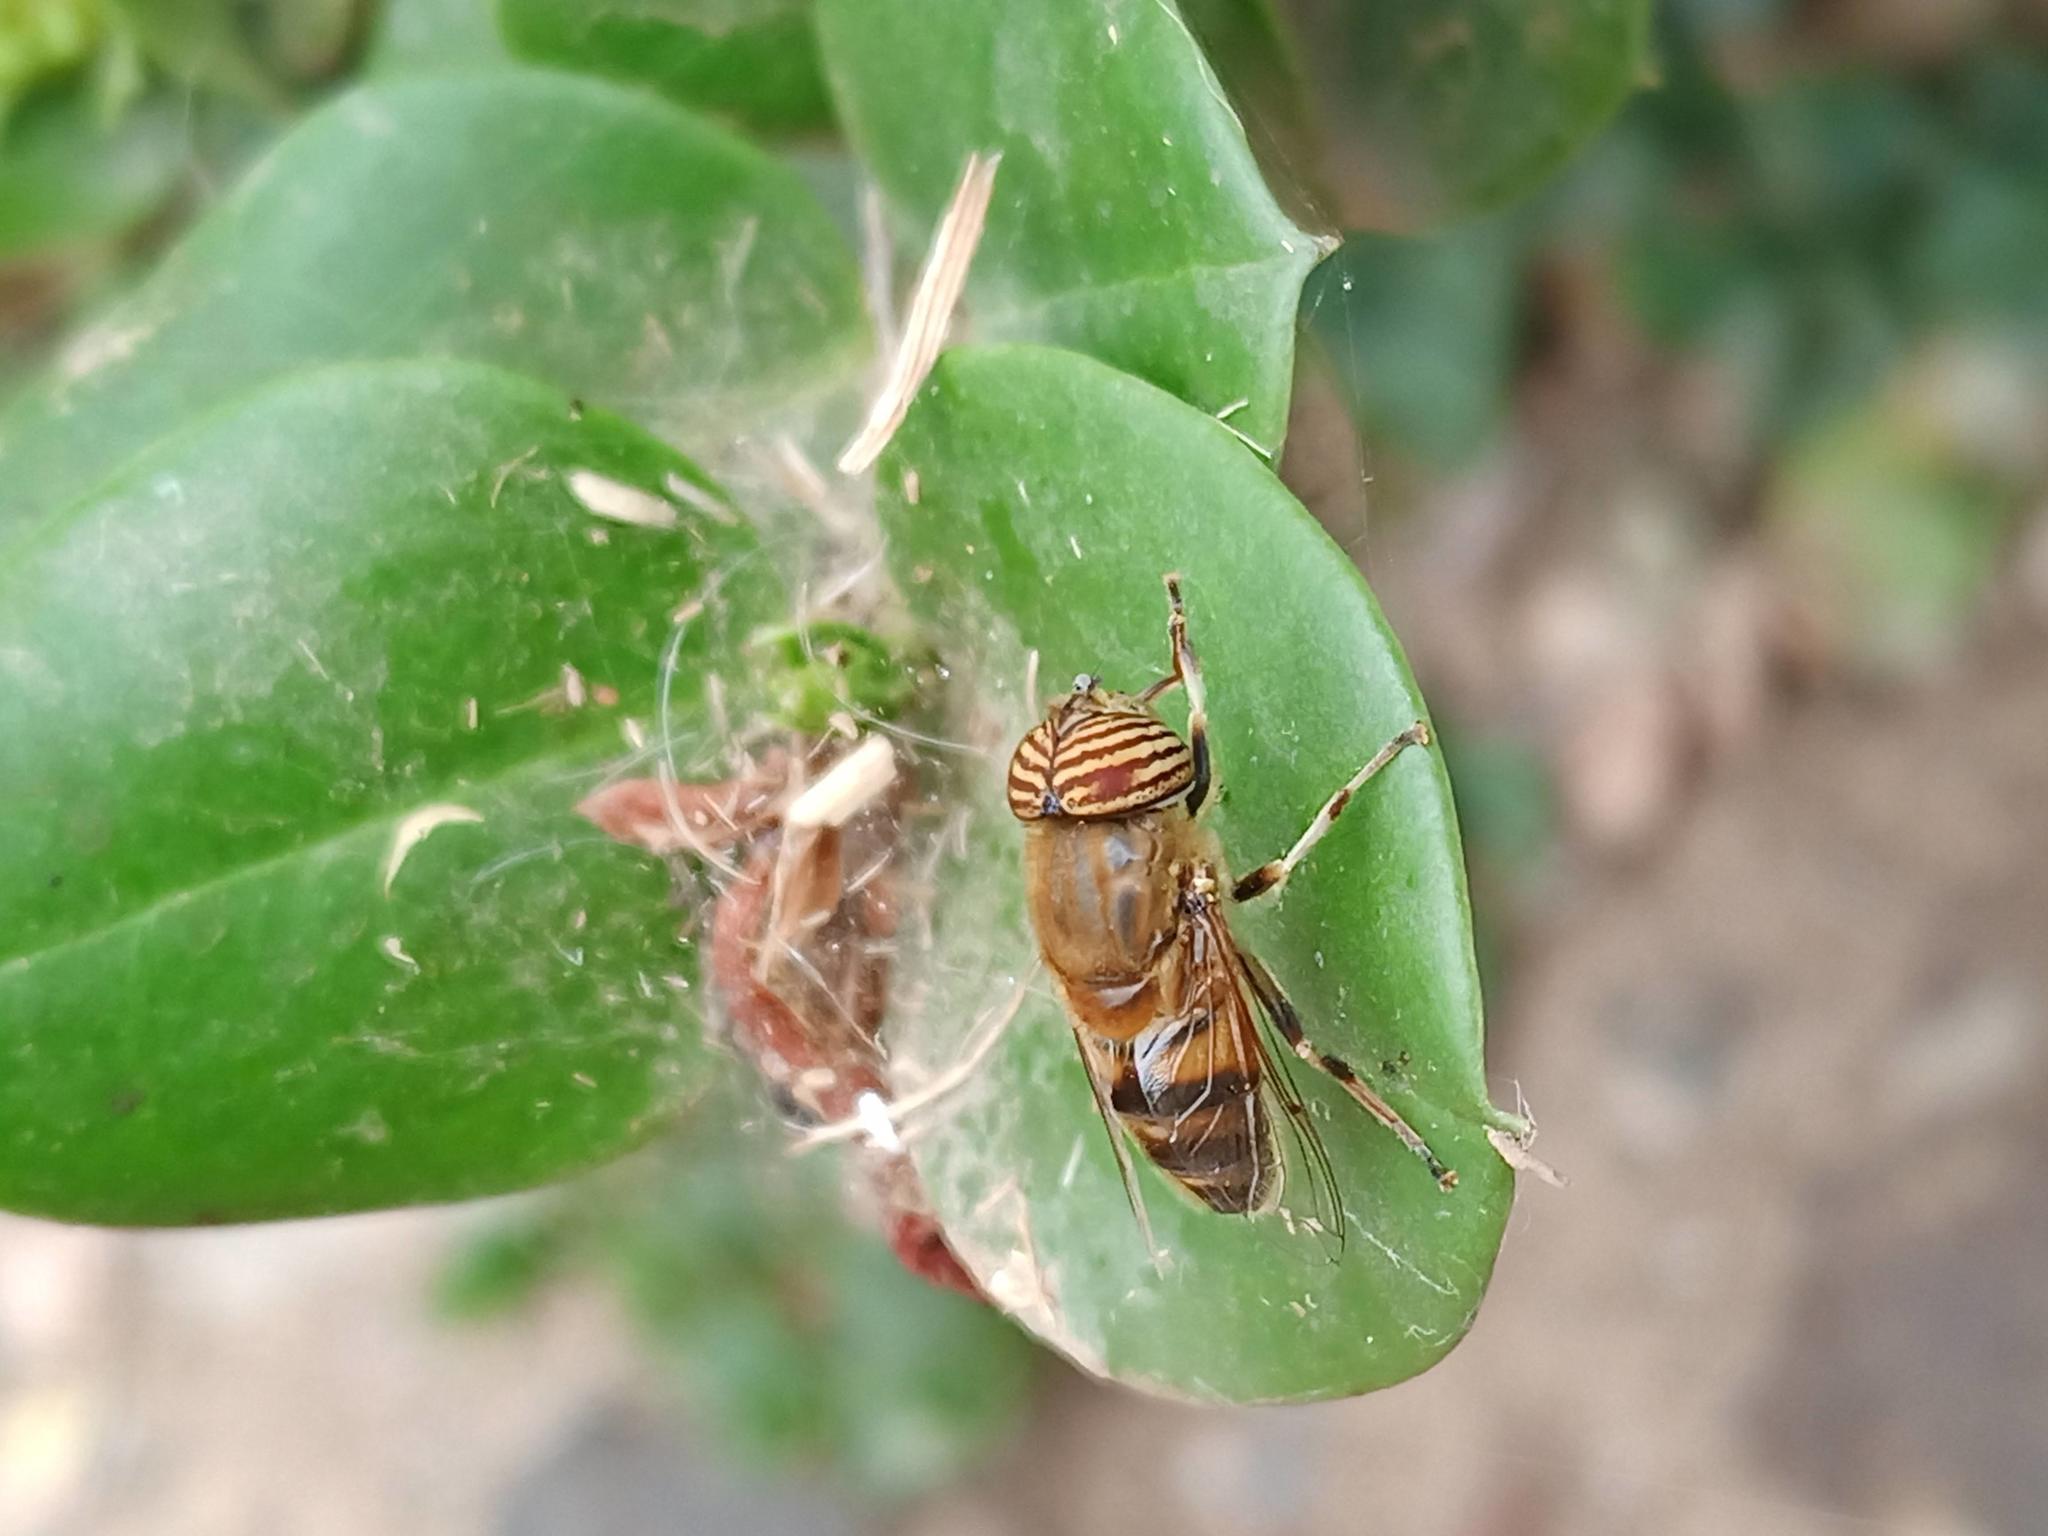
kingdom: Animalia
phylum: Arthropoda
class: Insecta
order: Diptera
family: Syrphidae
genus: Eristalinus
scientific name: Eristalinus taeniops
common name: Syrphid fly
